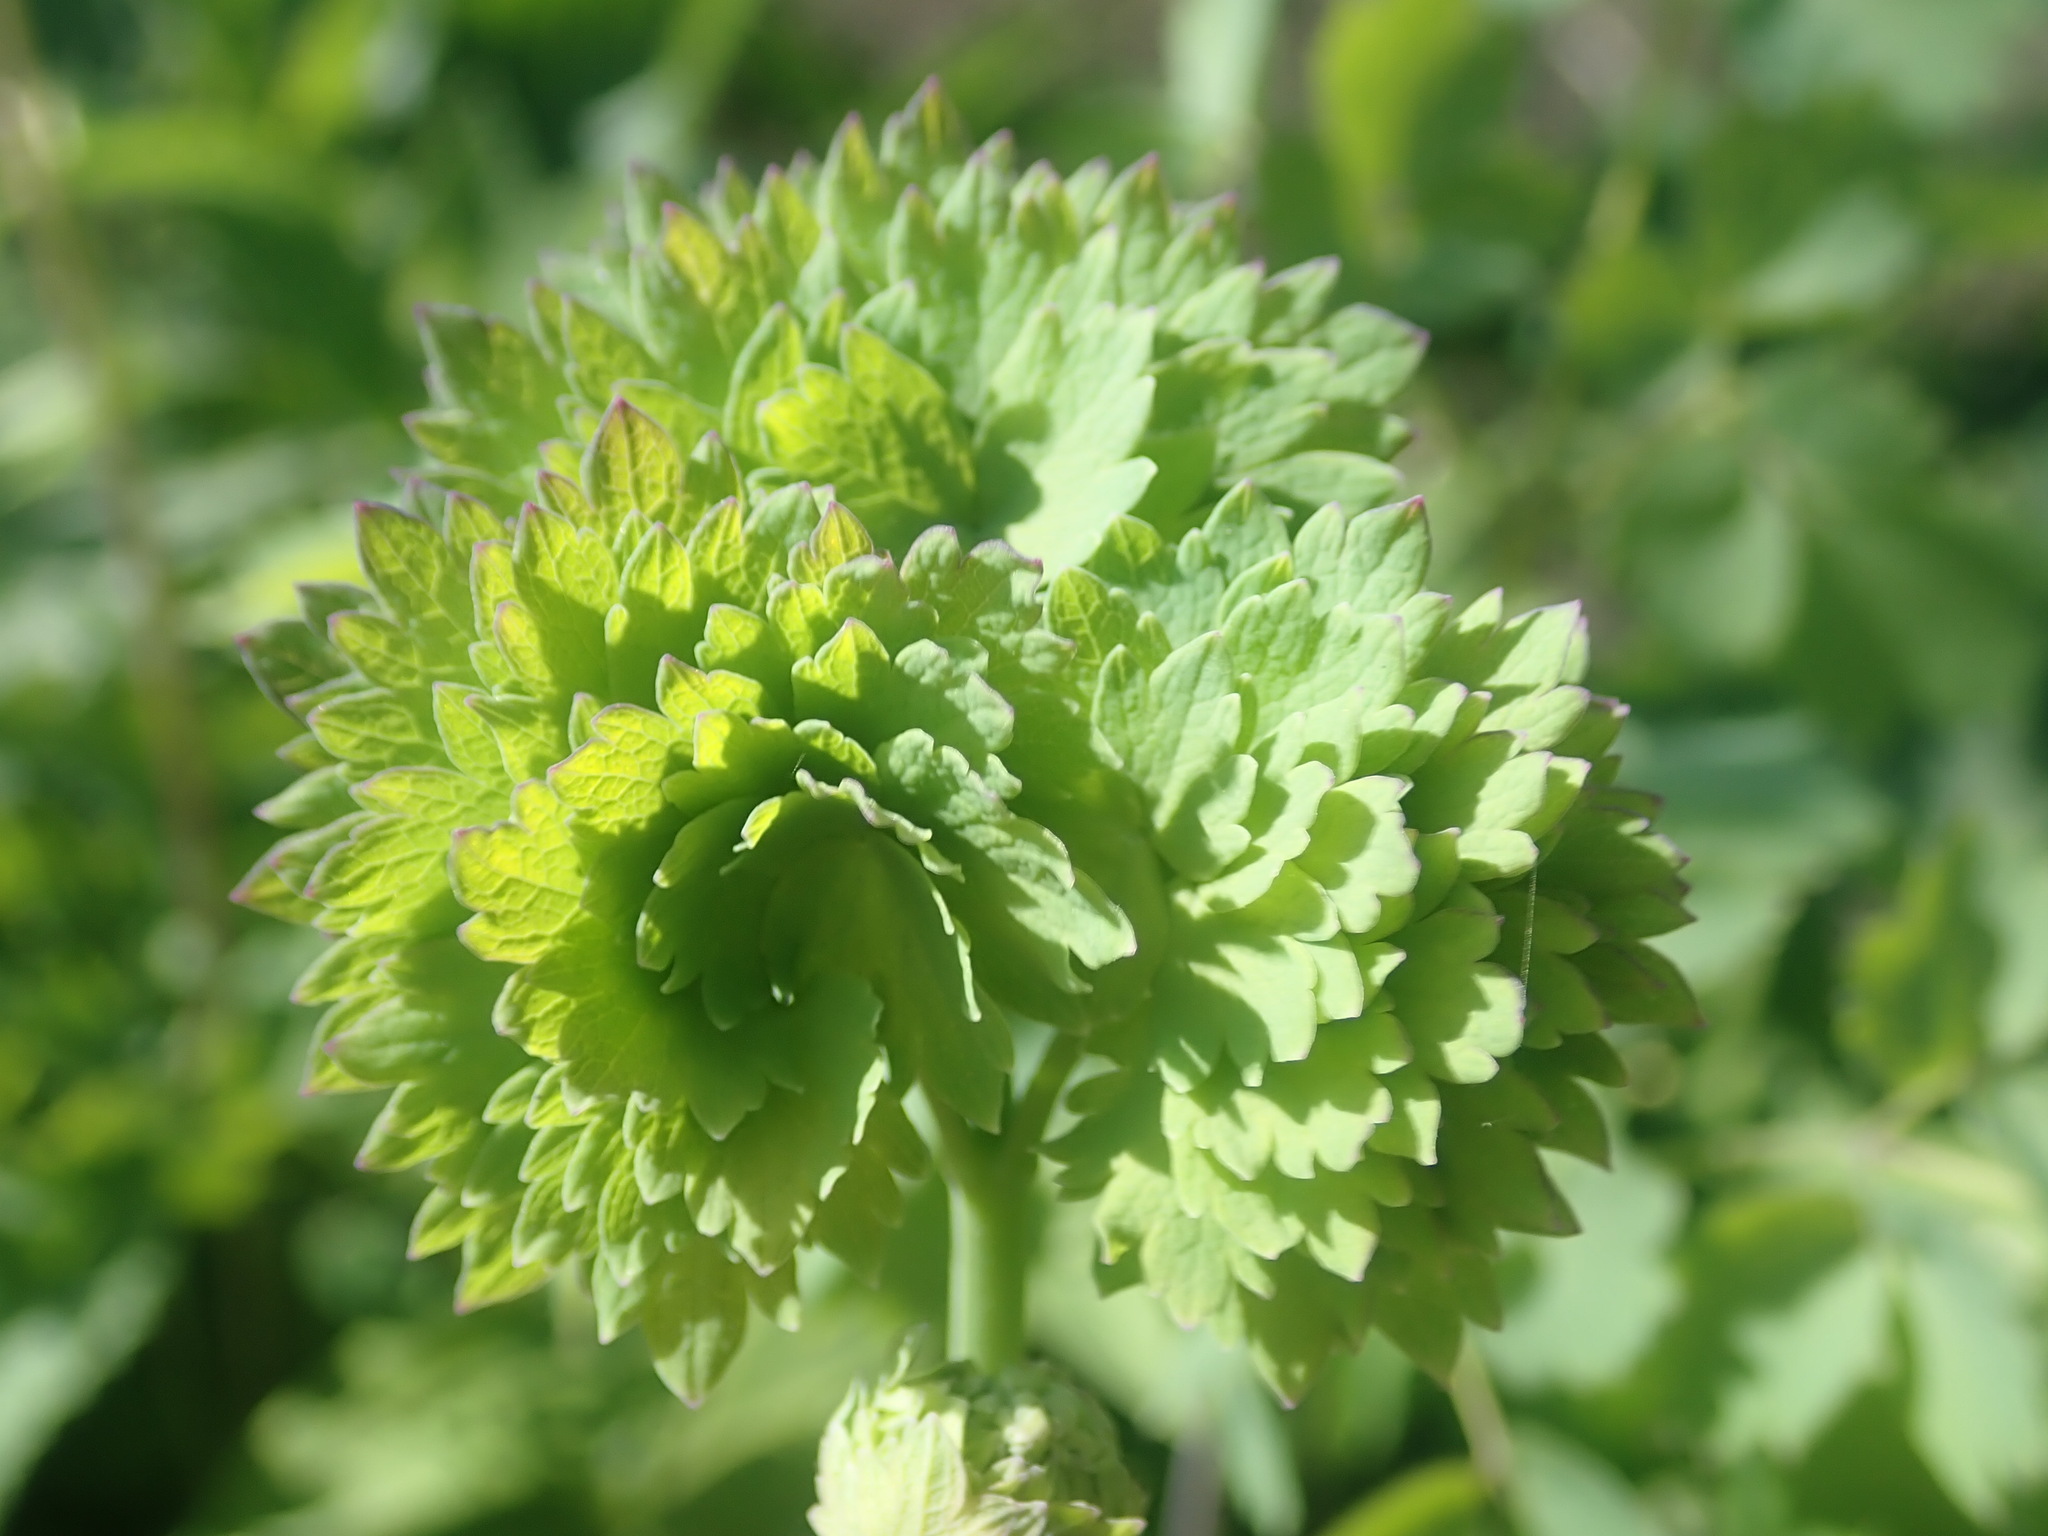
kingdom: Plantae
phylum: Tracheophyta
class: Magnoliopsida
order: Ranunculales
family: Ranunculaceae
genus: Thalictrum
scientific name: Thalictrum fendleri
